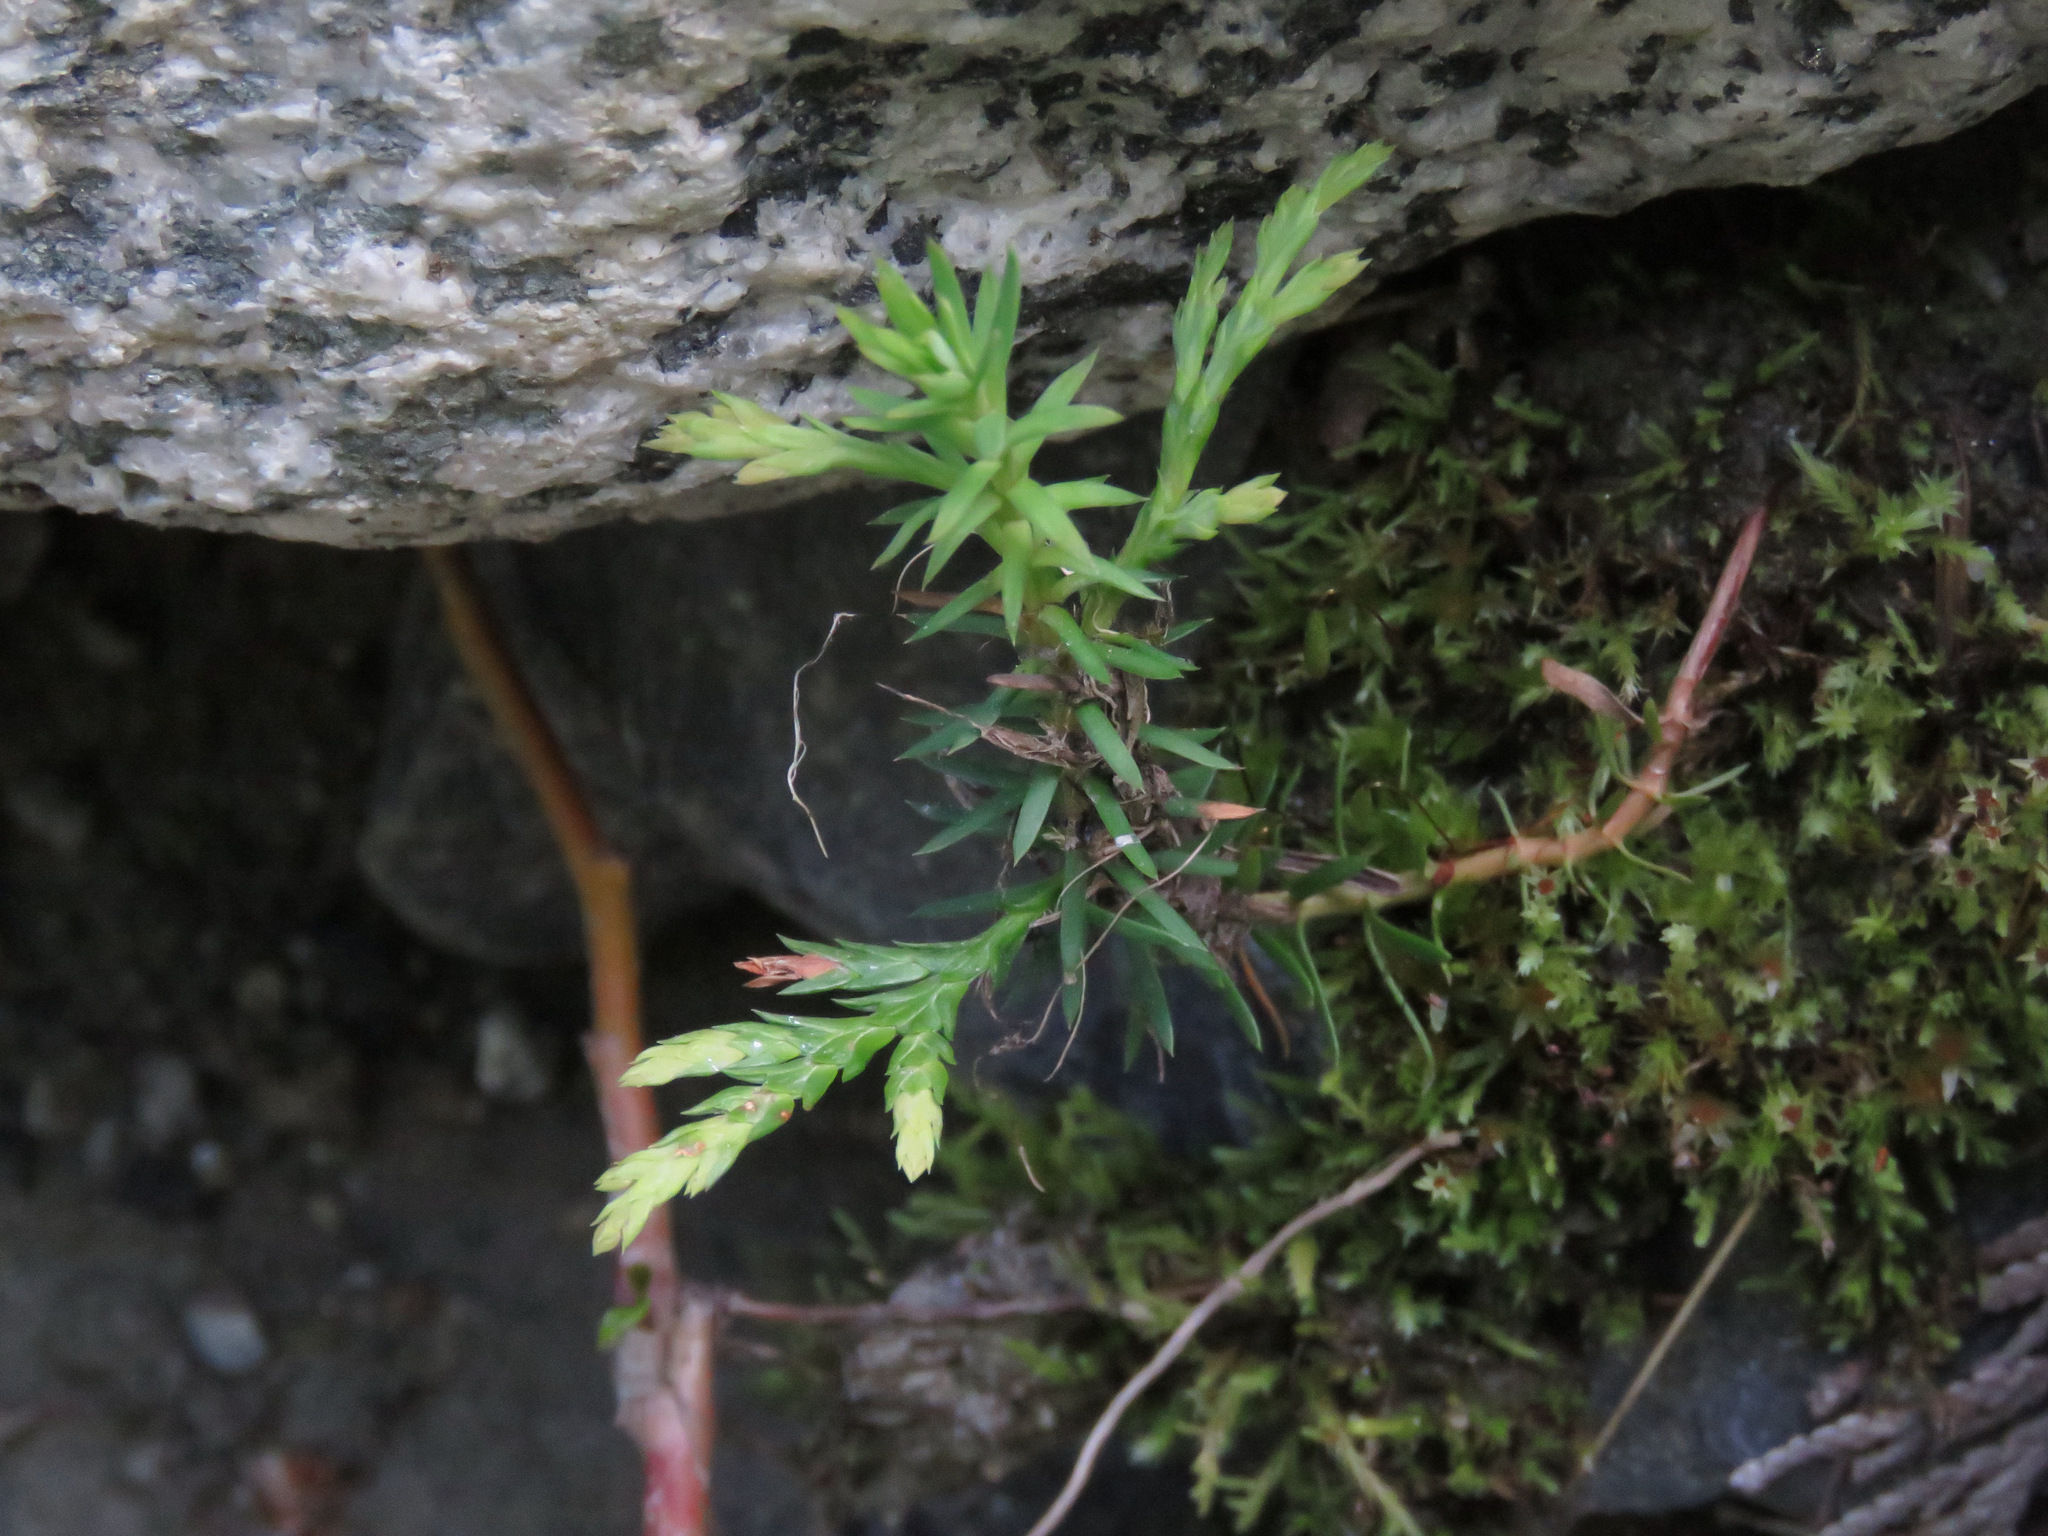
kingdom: Plantae
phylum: Tracheophyta
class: Pinopsida
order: Pinales
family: Cupressaceae
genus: Thuja
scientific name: Thuja plicata
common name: Western red-cedar
